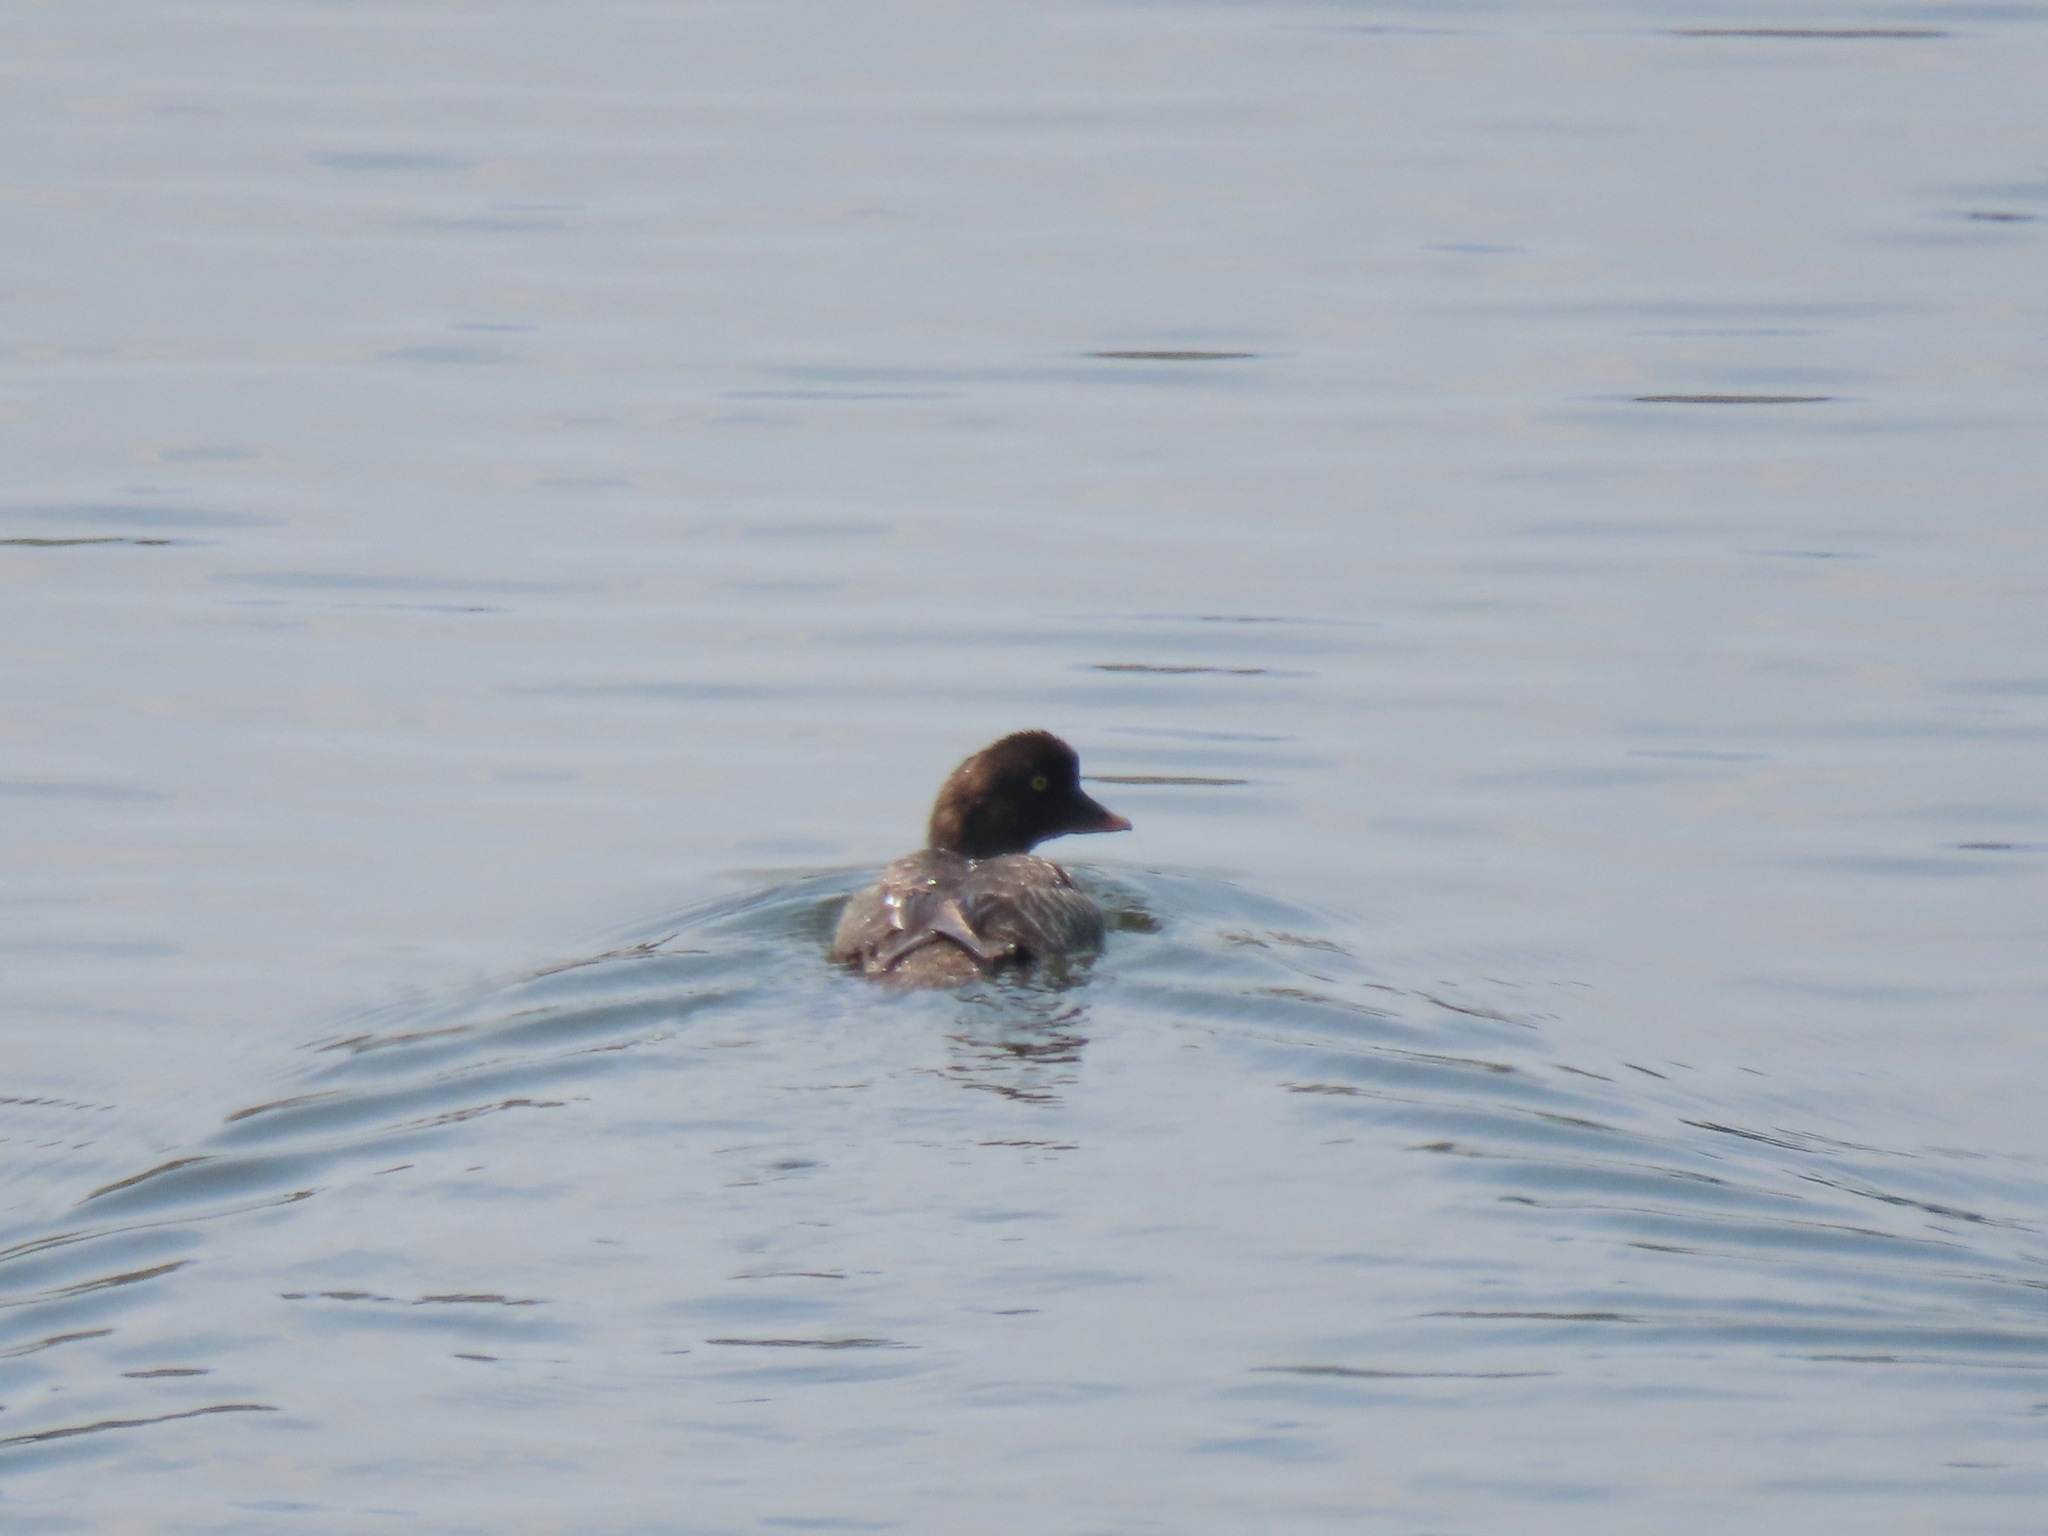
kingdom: Animalia
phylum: Chordata
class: Aves
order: Anseriformes
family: Anatidae
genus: Bucephala
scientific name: Bucephala islandica
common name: Barrow's goldeneye
